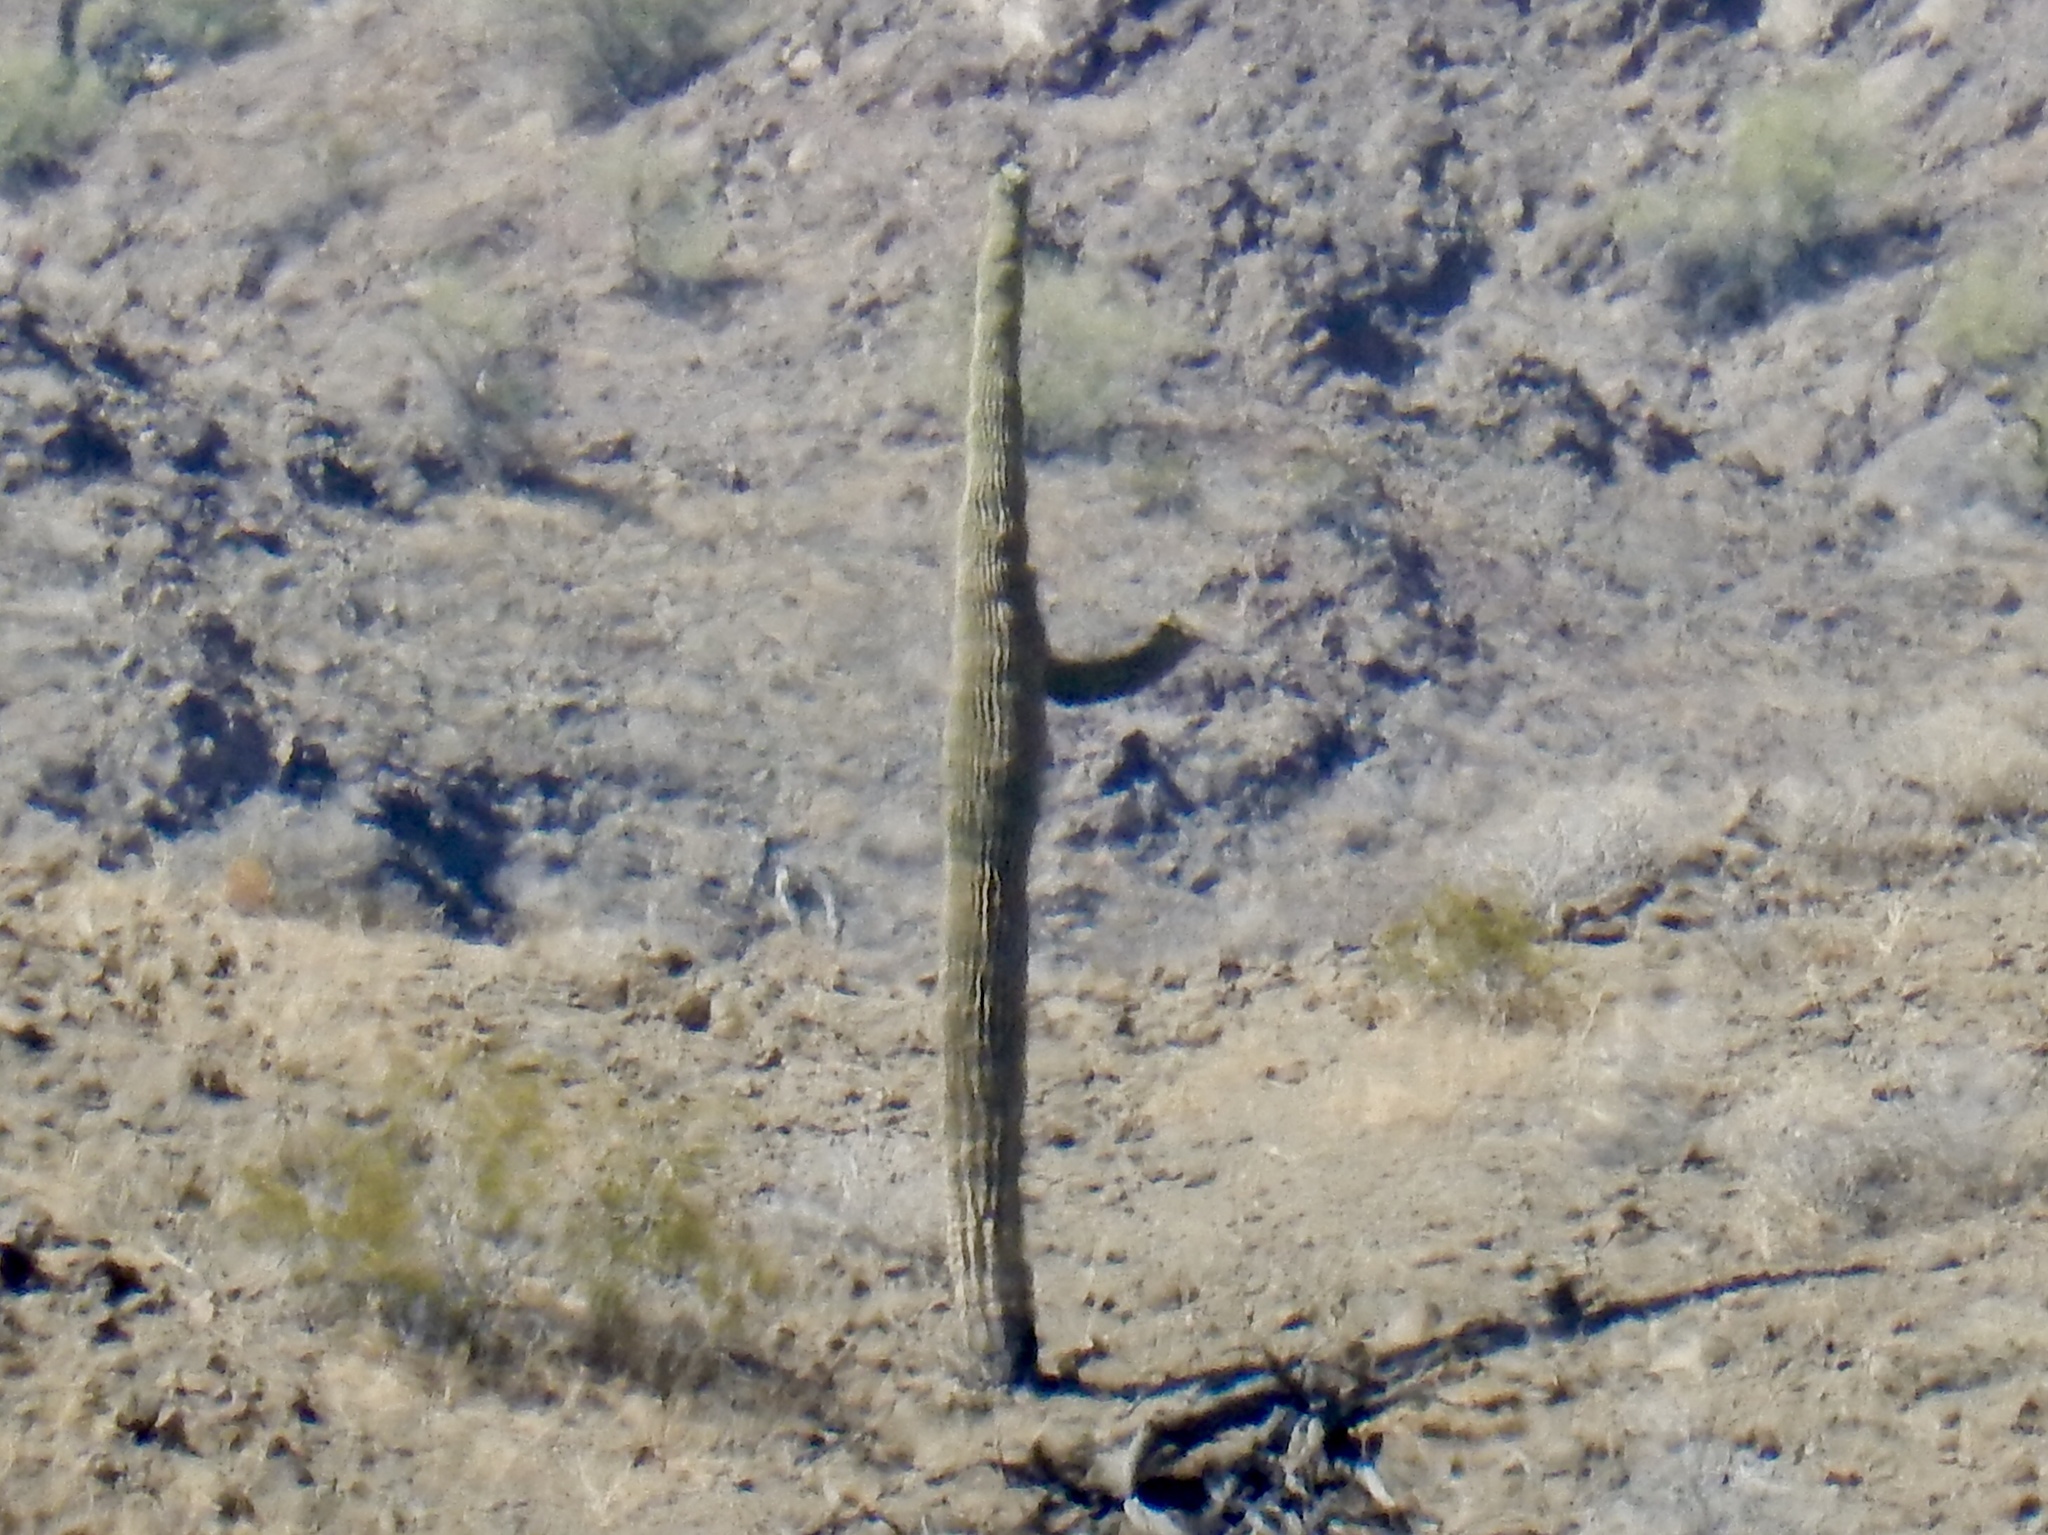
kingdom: Plantae
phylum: Tracheophyta
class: Magnoliopsida
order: Caryophyllales
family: Cactaceae
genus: Carnegiea
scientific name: Carnegiea gigantea
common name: Saguaro
